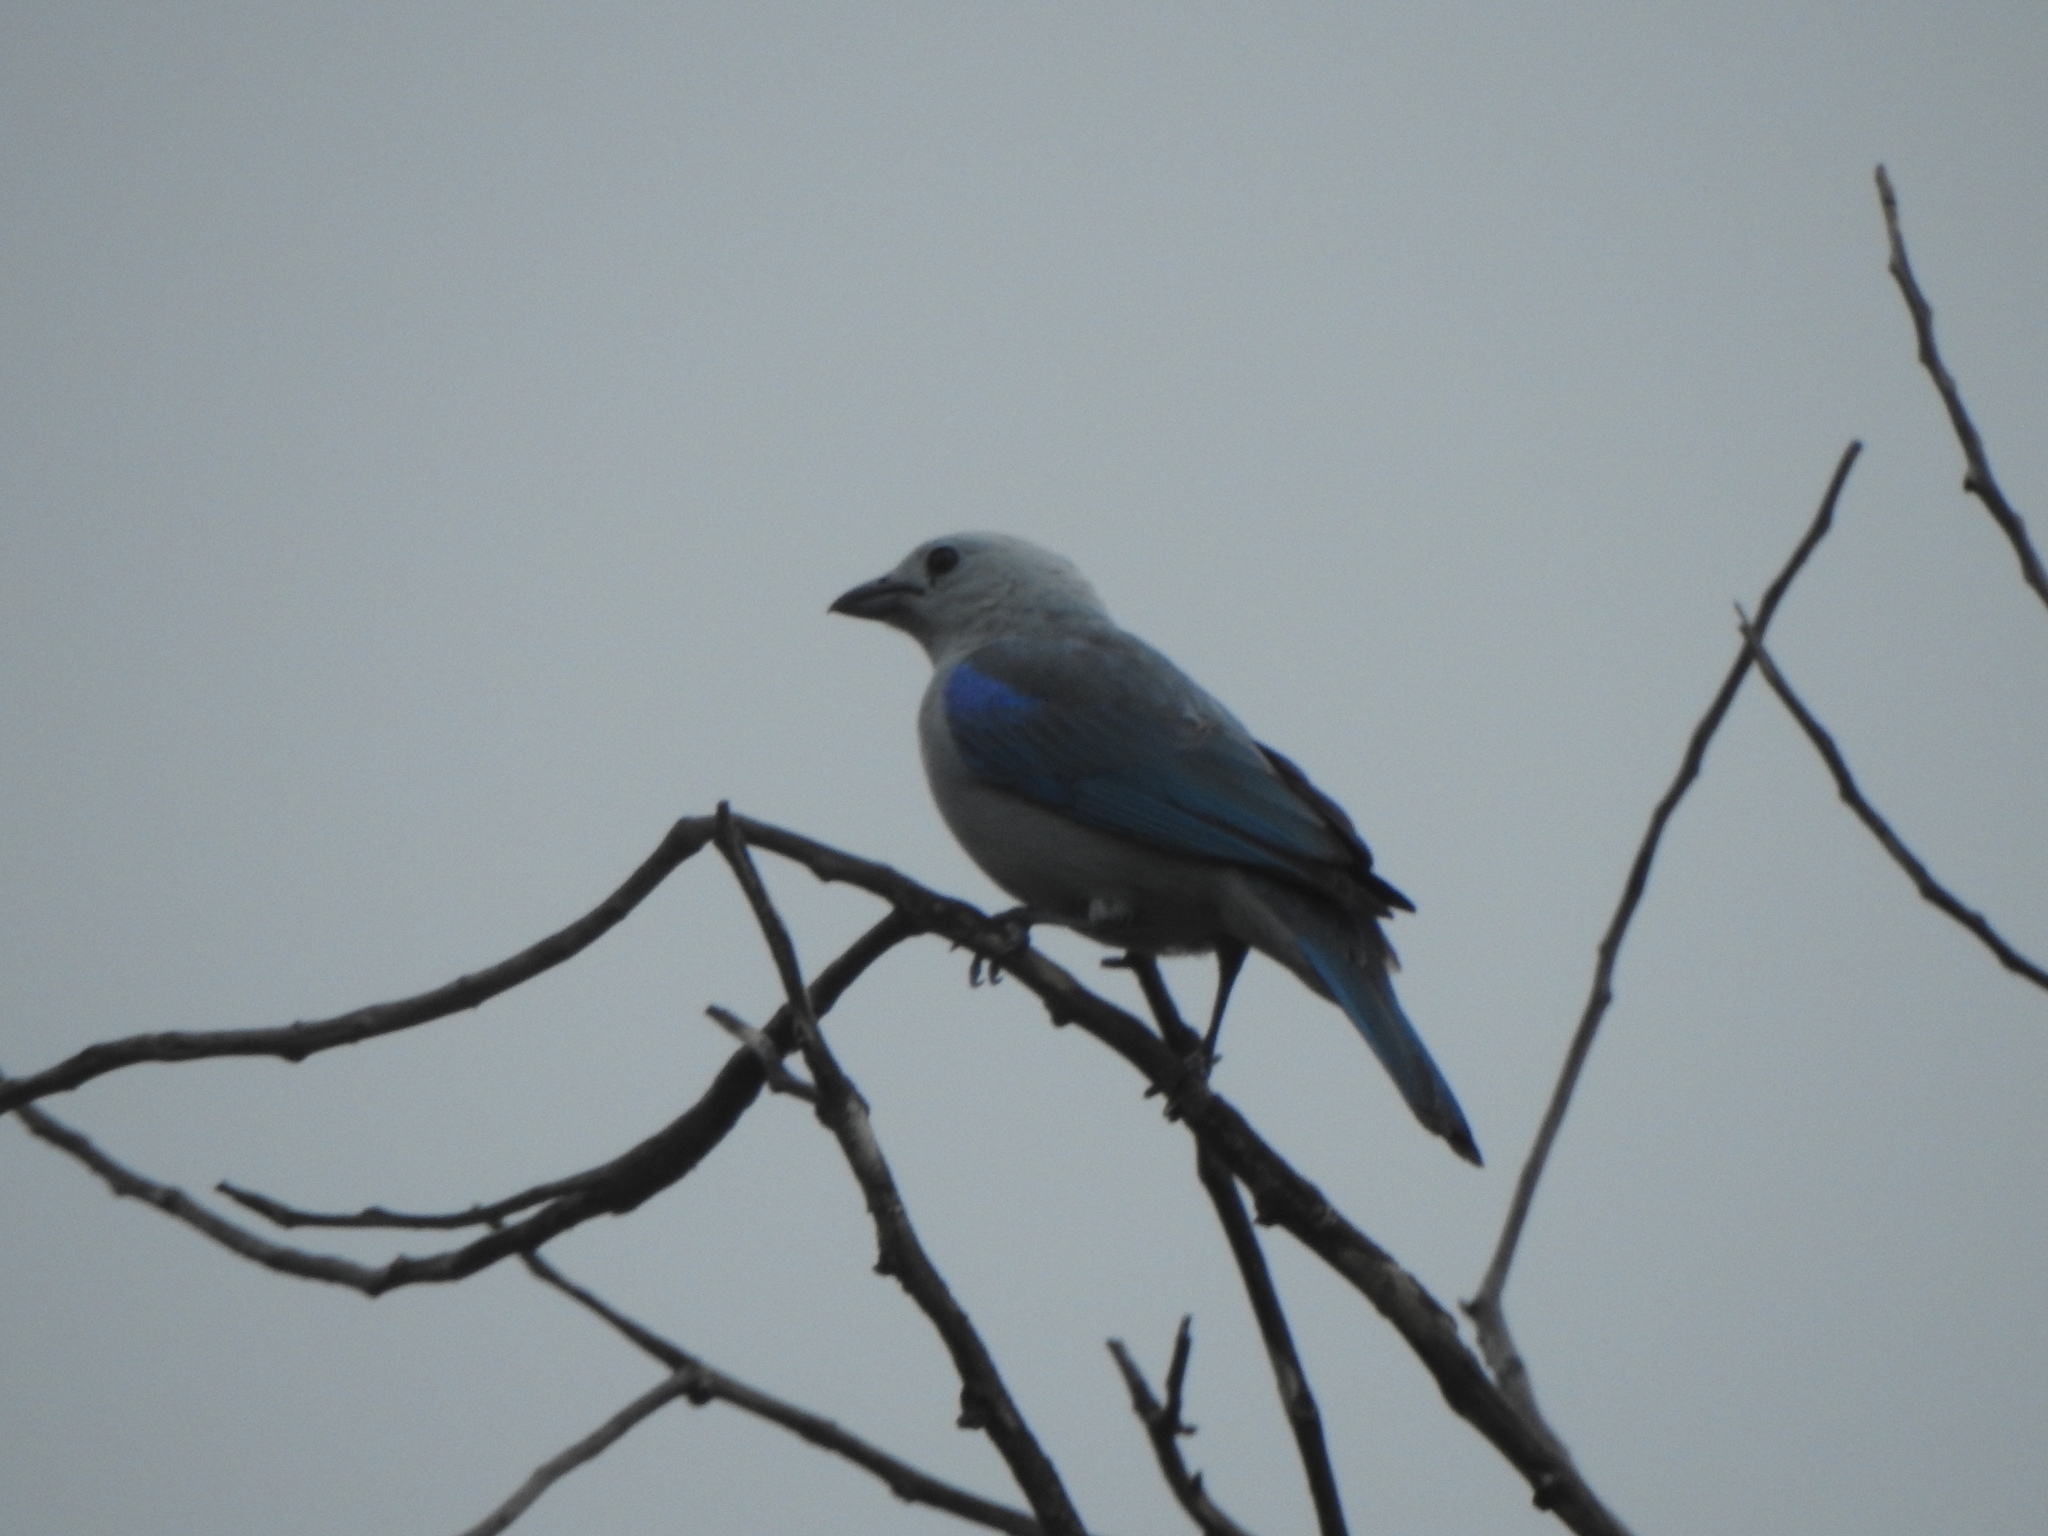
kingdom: Animalia
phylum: Chordata
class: Aves
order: Passeriformes
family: Thraupidae
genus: Thraupis
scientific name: Thraupis episcopus
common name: Blue-grey tanager
